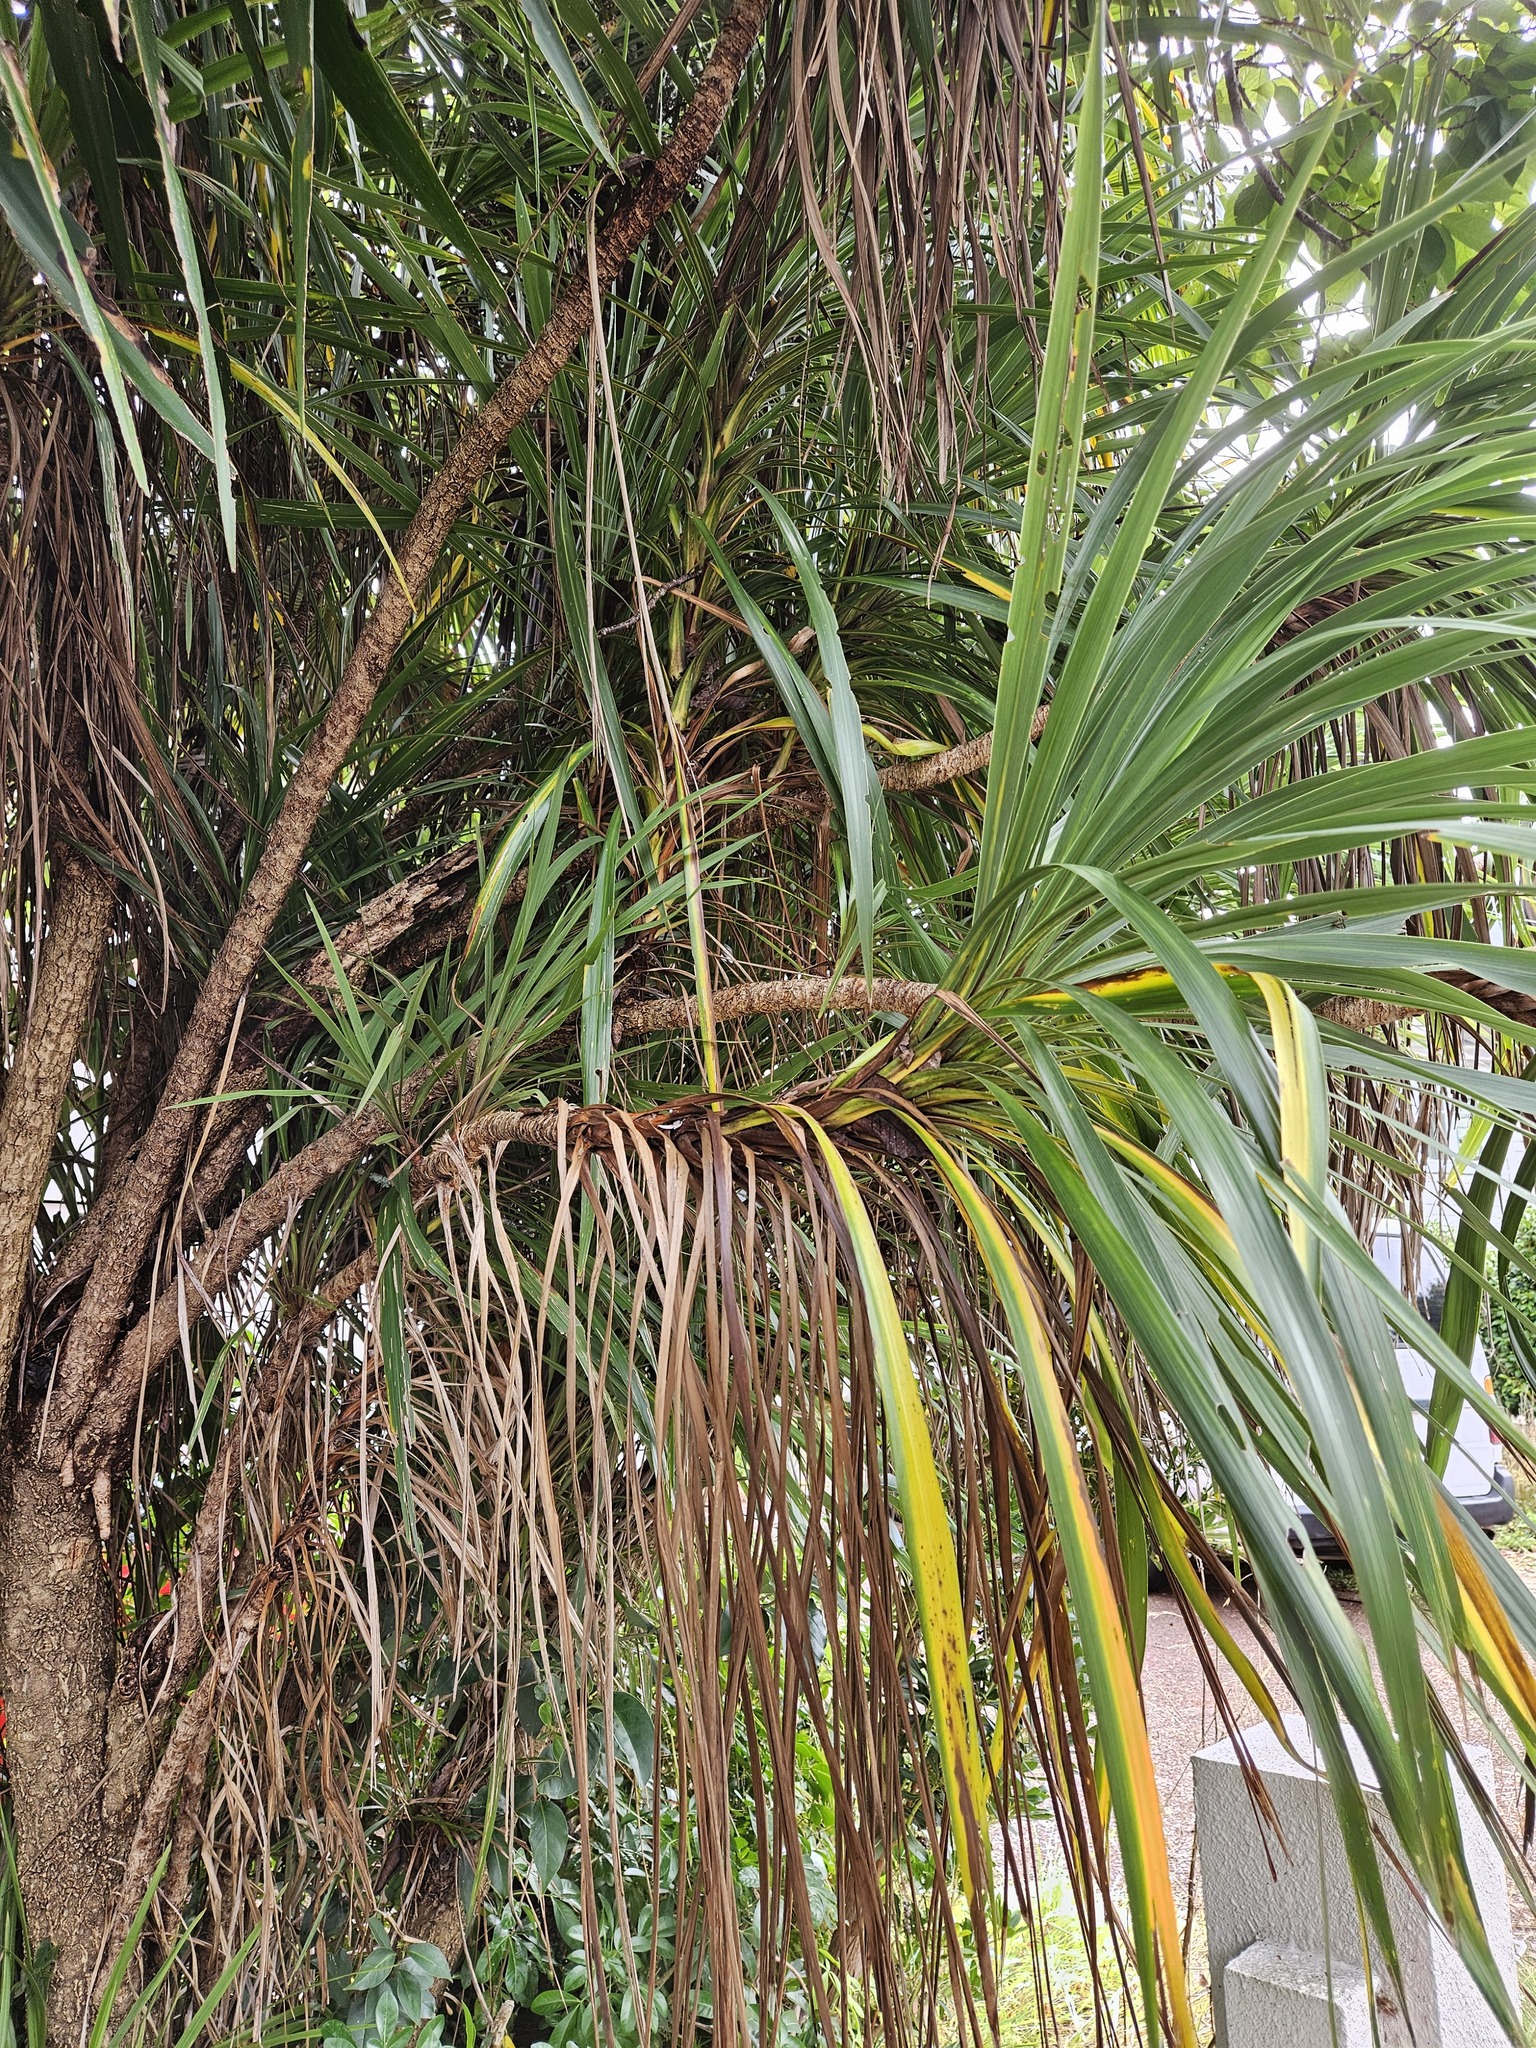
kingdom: Plantae
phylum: Tracheophyta
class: Liliopsida
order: Asparagales
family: Asparagaceae
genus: Cordyline
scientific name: Cordyline australis
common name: Cabbage-palm
